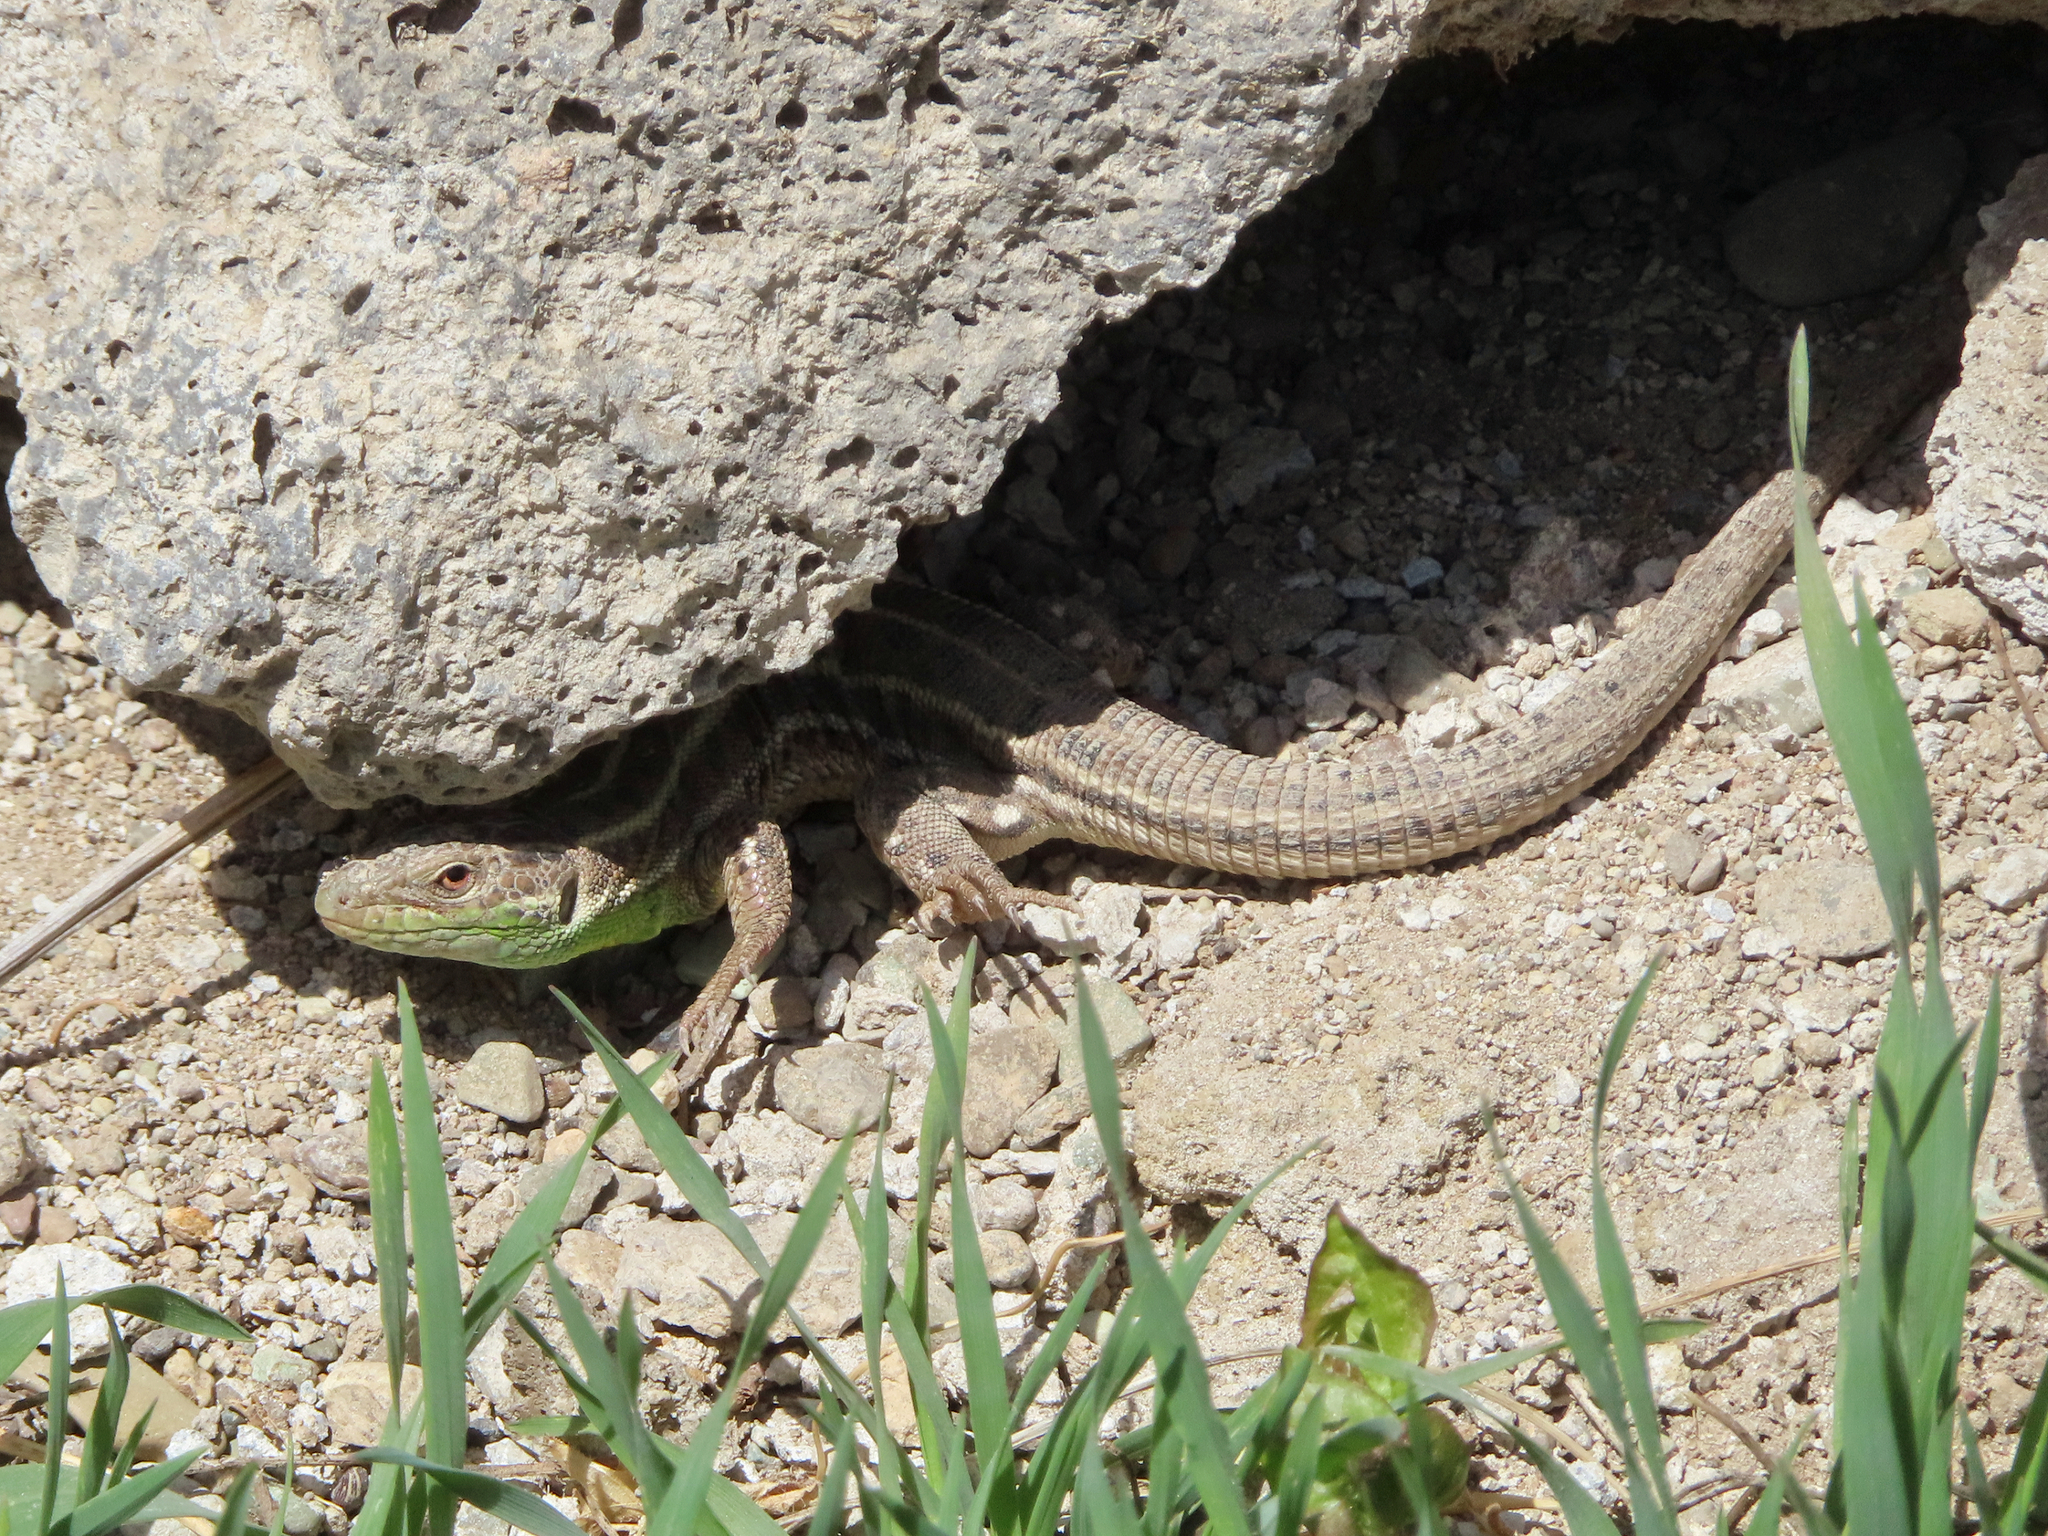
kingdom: Animalia
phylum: Chordata
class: Squamata
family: Lacertidae
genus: Lacerta
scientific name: Lacerta strigata
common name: Caspian green lizard
